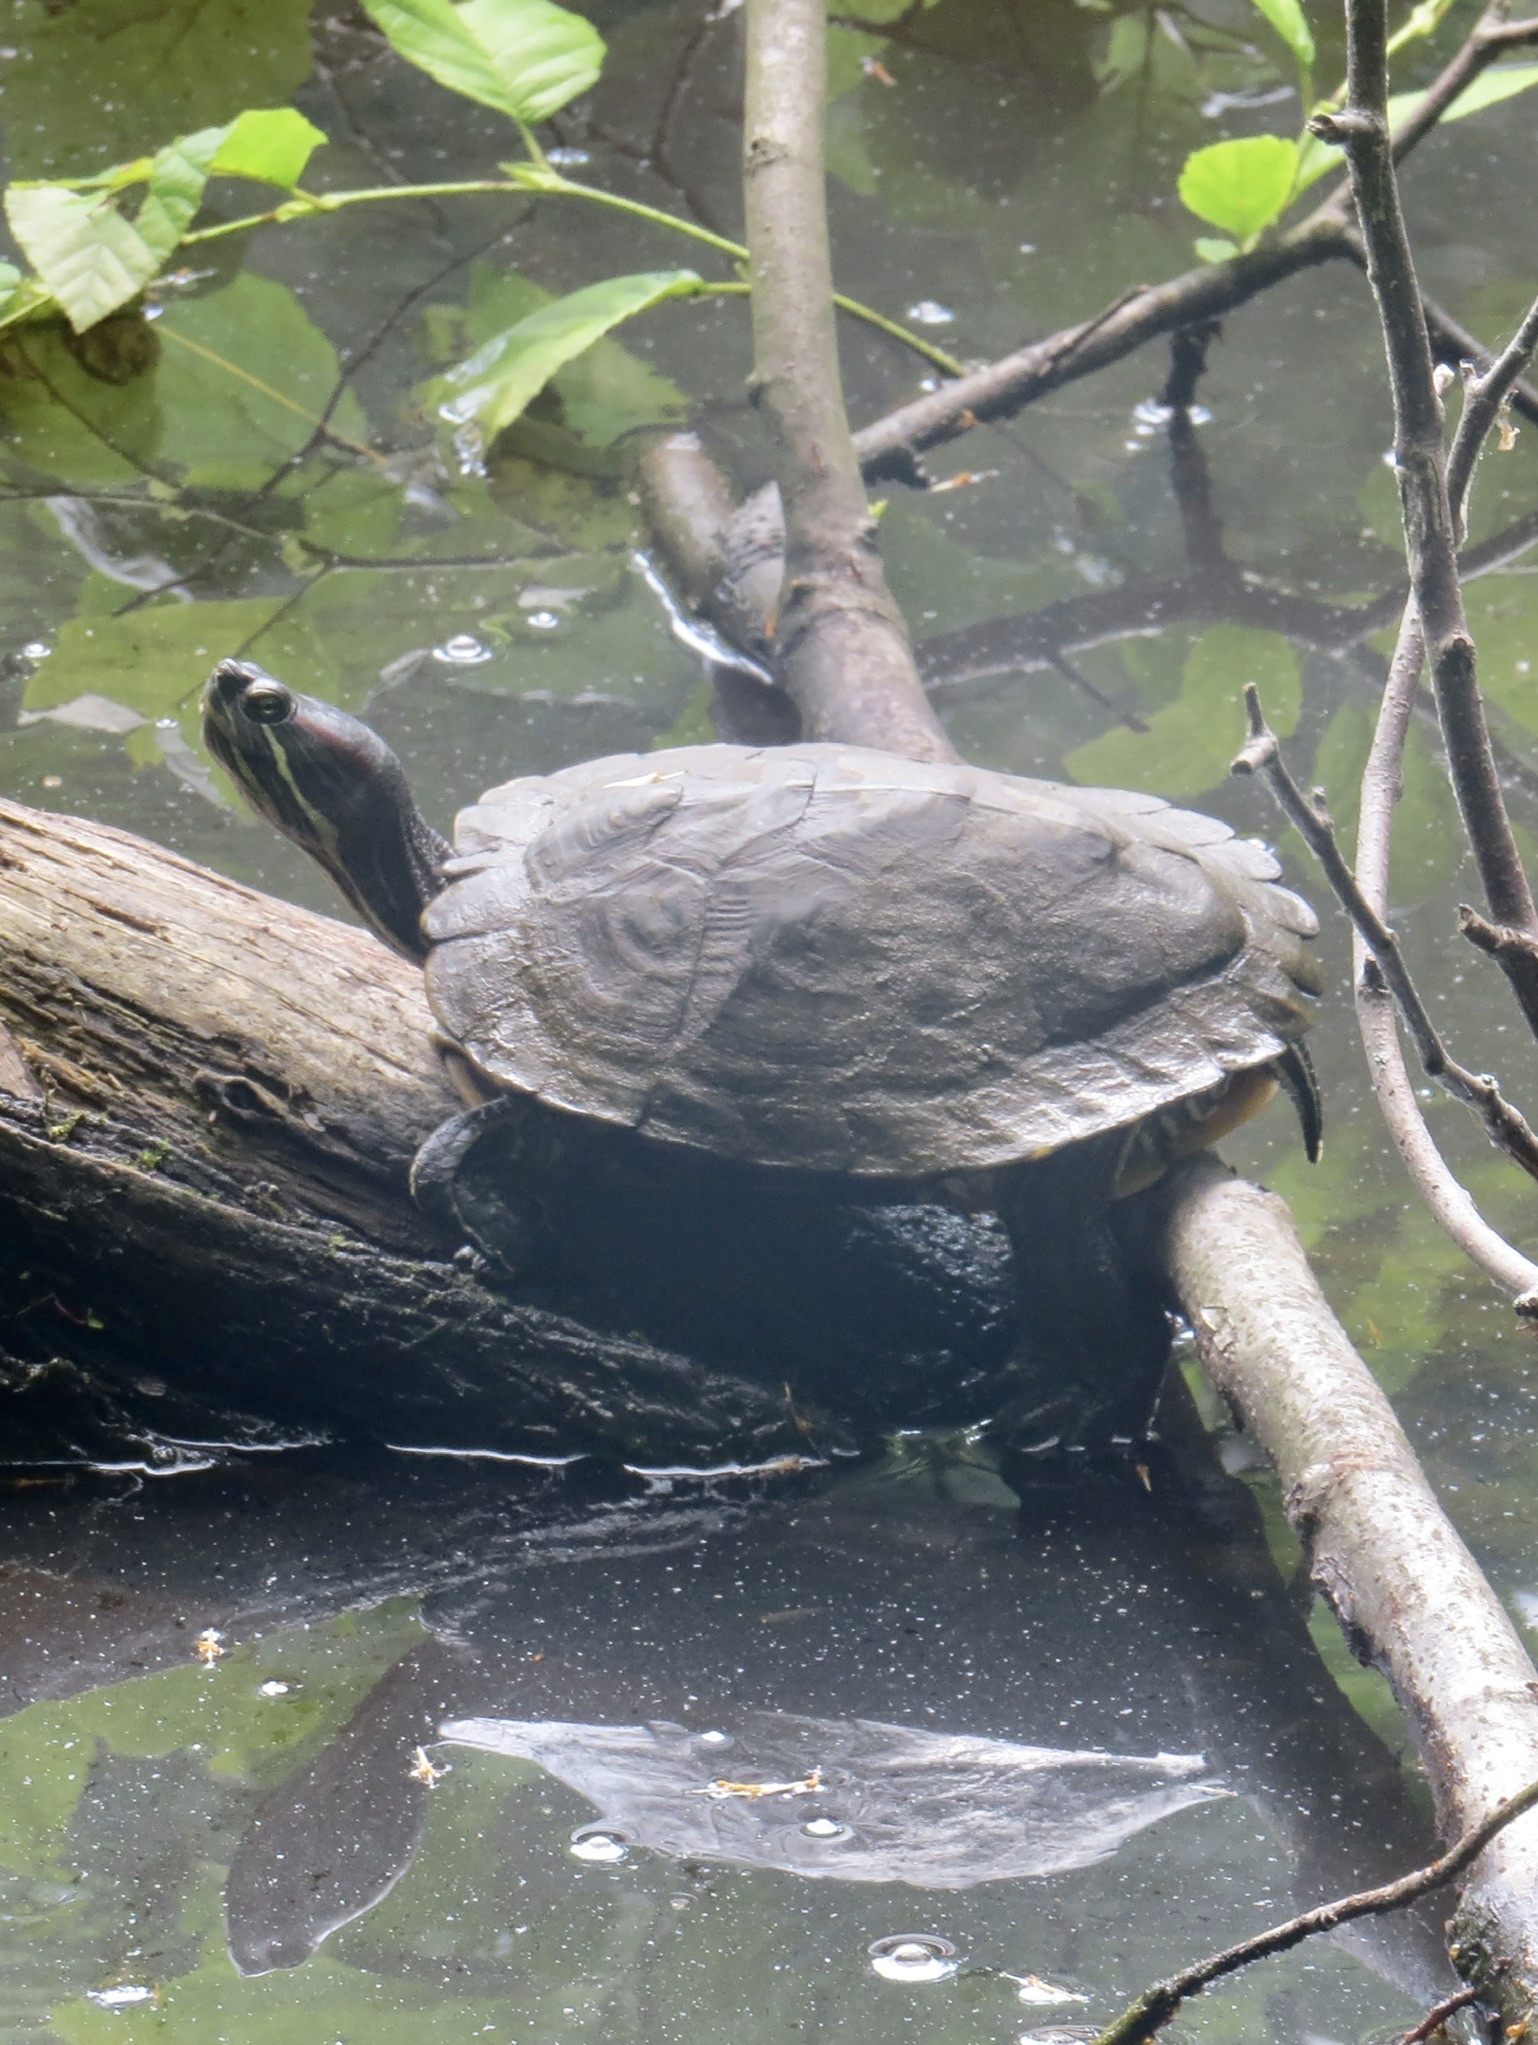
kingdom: Animalia
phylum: Chordata
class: Testudines
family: Emydidae
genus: Trachemys
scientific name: Trachemys scripta
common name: Slider
